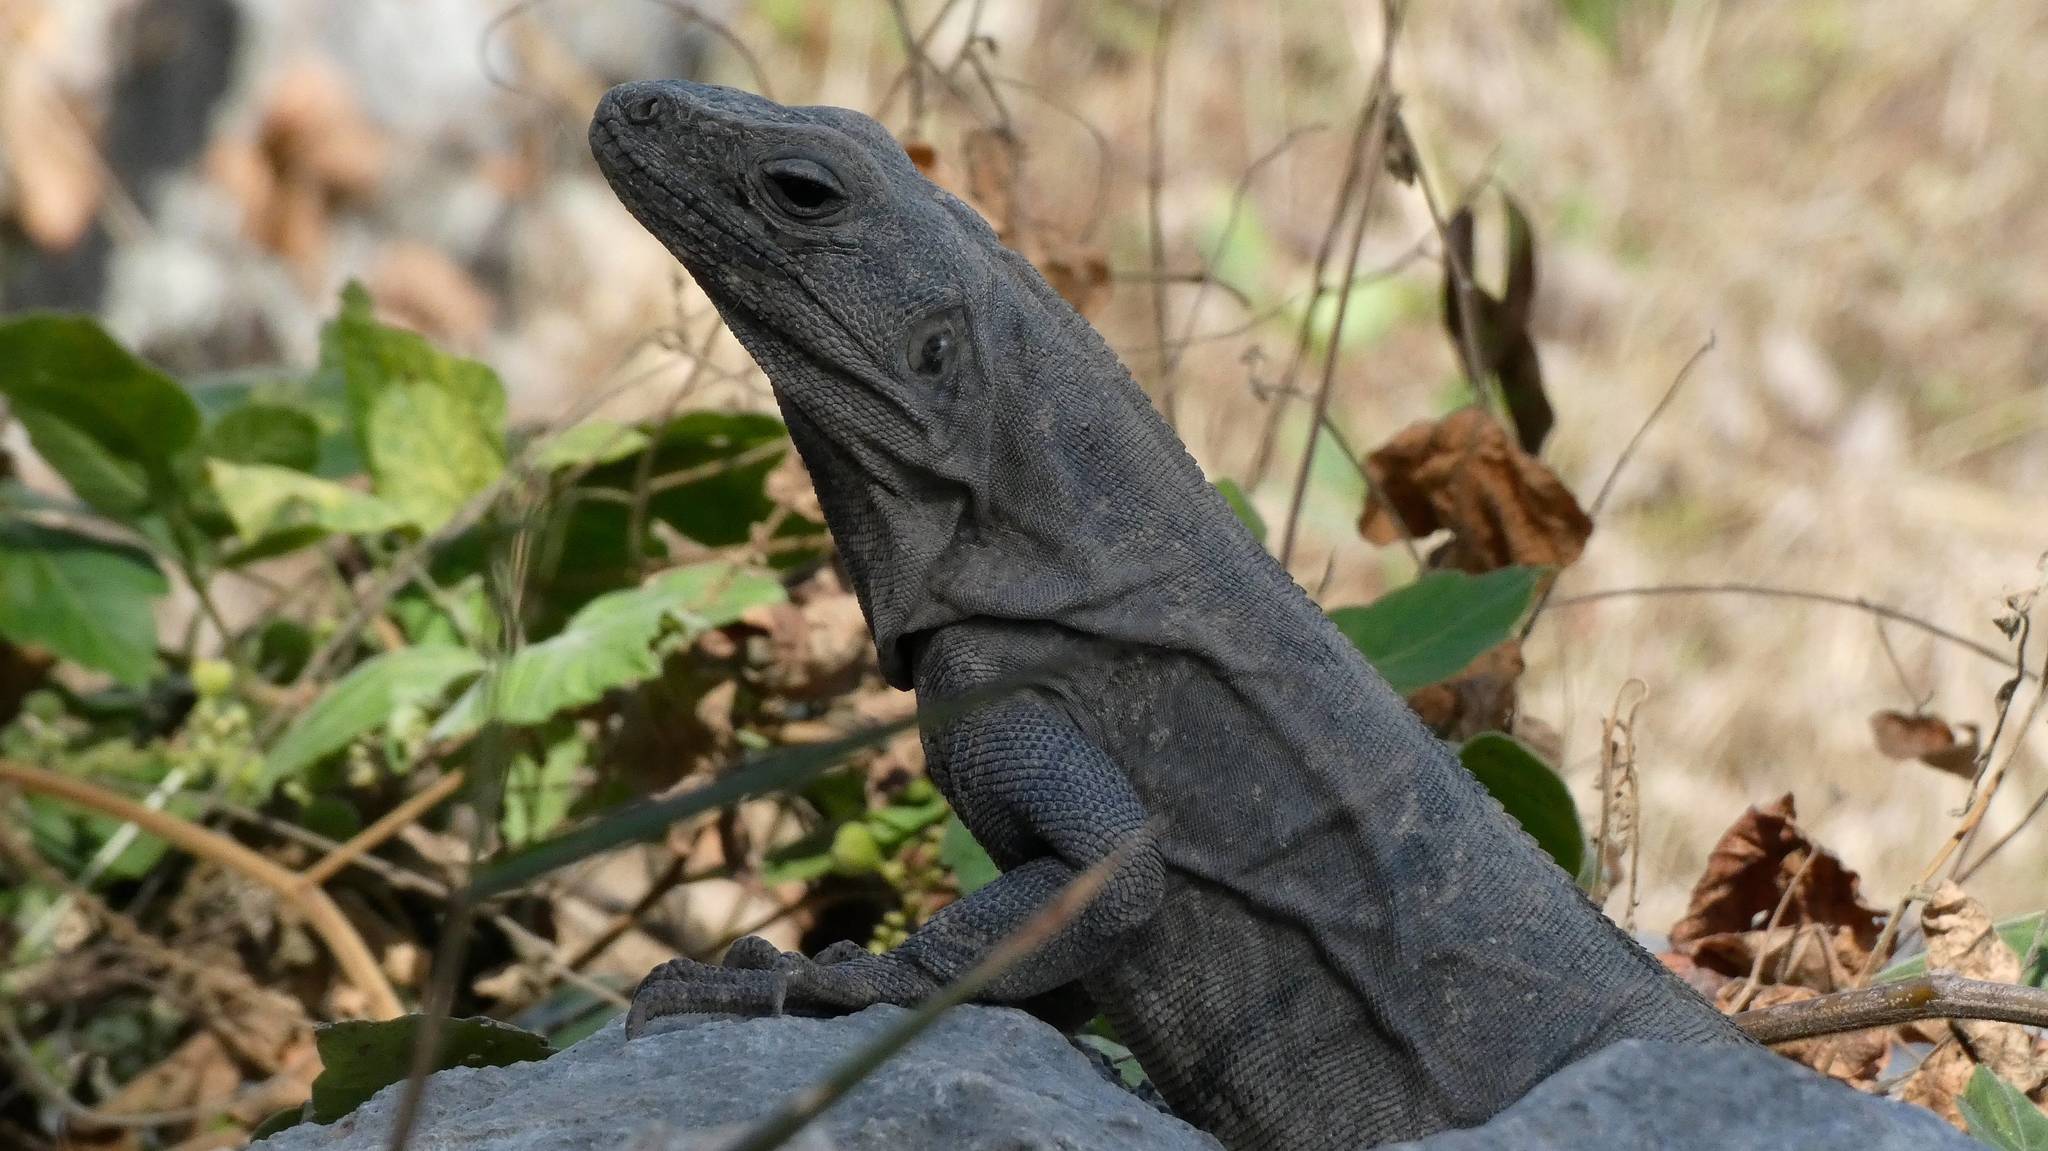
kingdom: Animalia
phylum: Chordata
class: Squamata
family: Iguanidae
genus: Ctenosaura
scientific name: Ctenosaura similis
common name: Black spiny-tailed iguana
